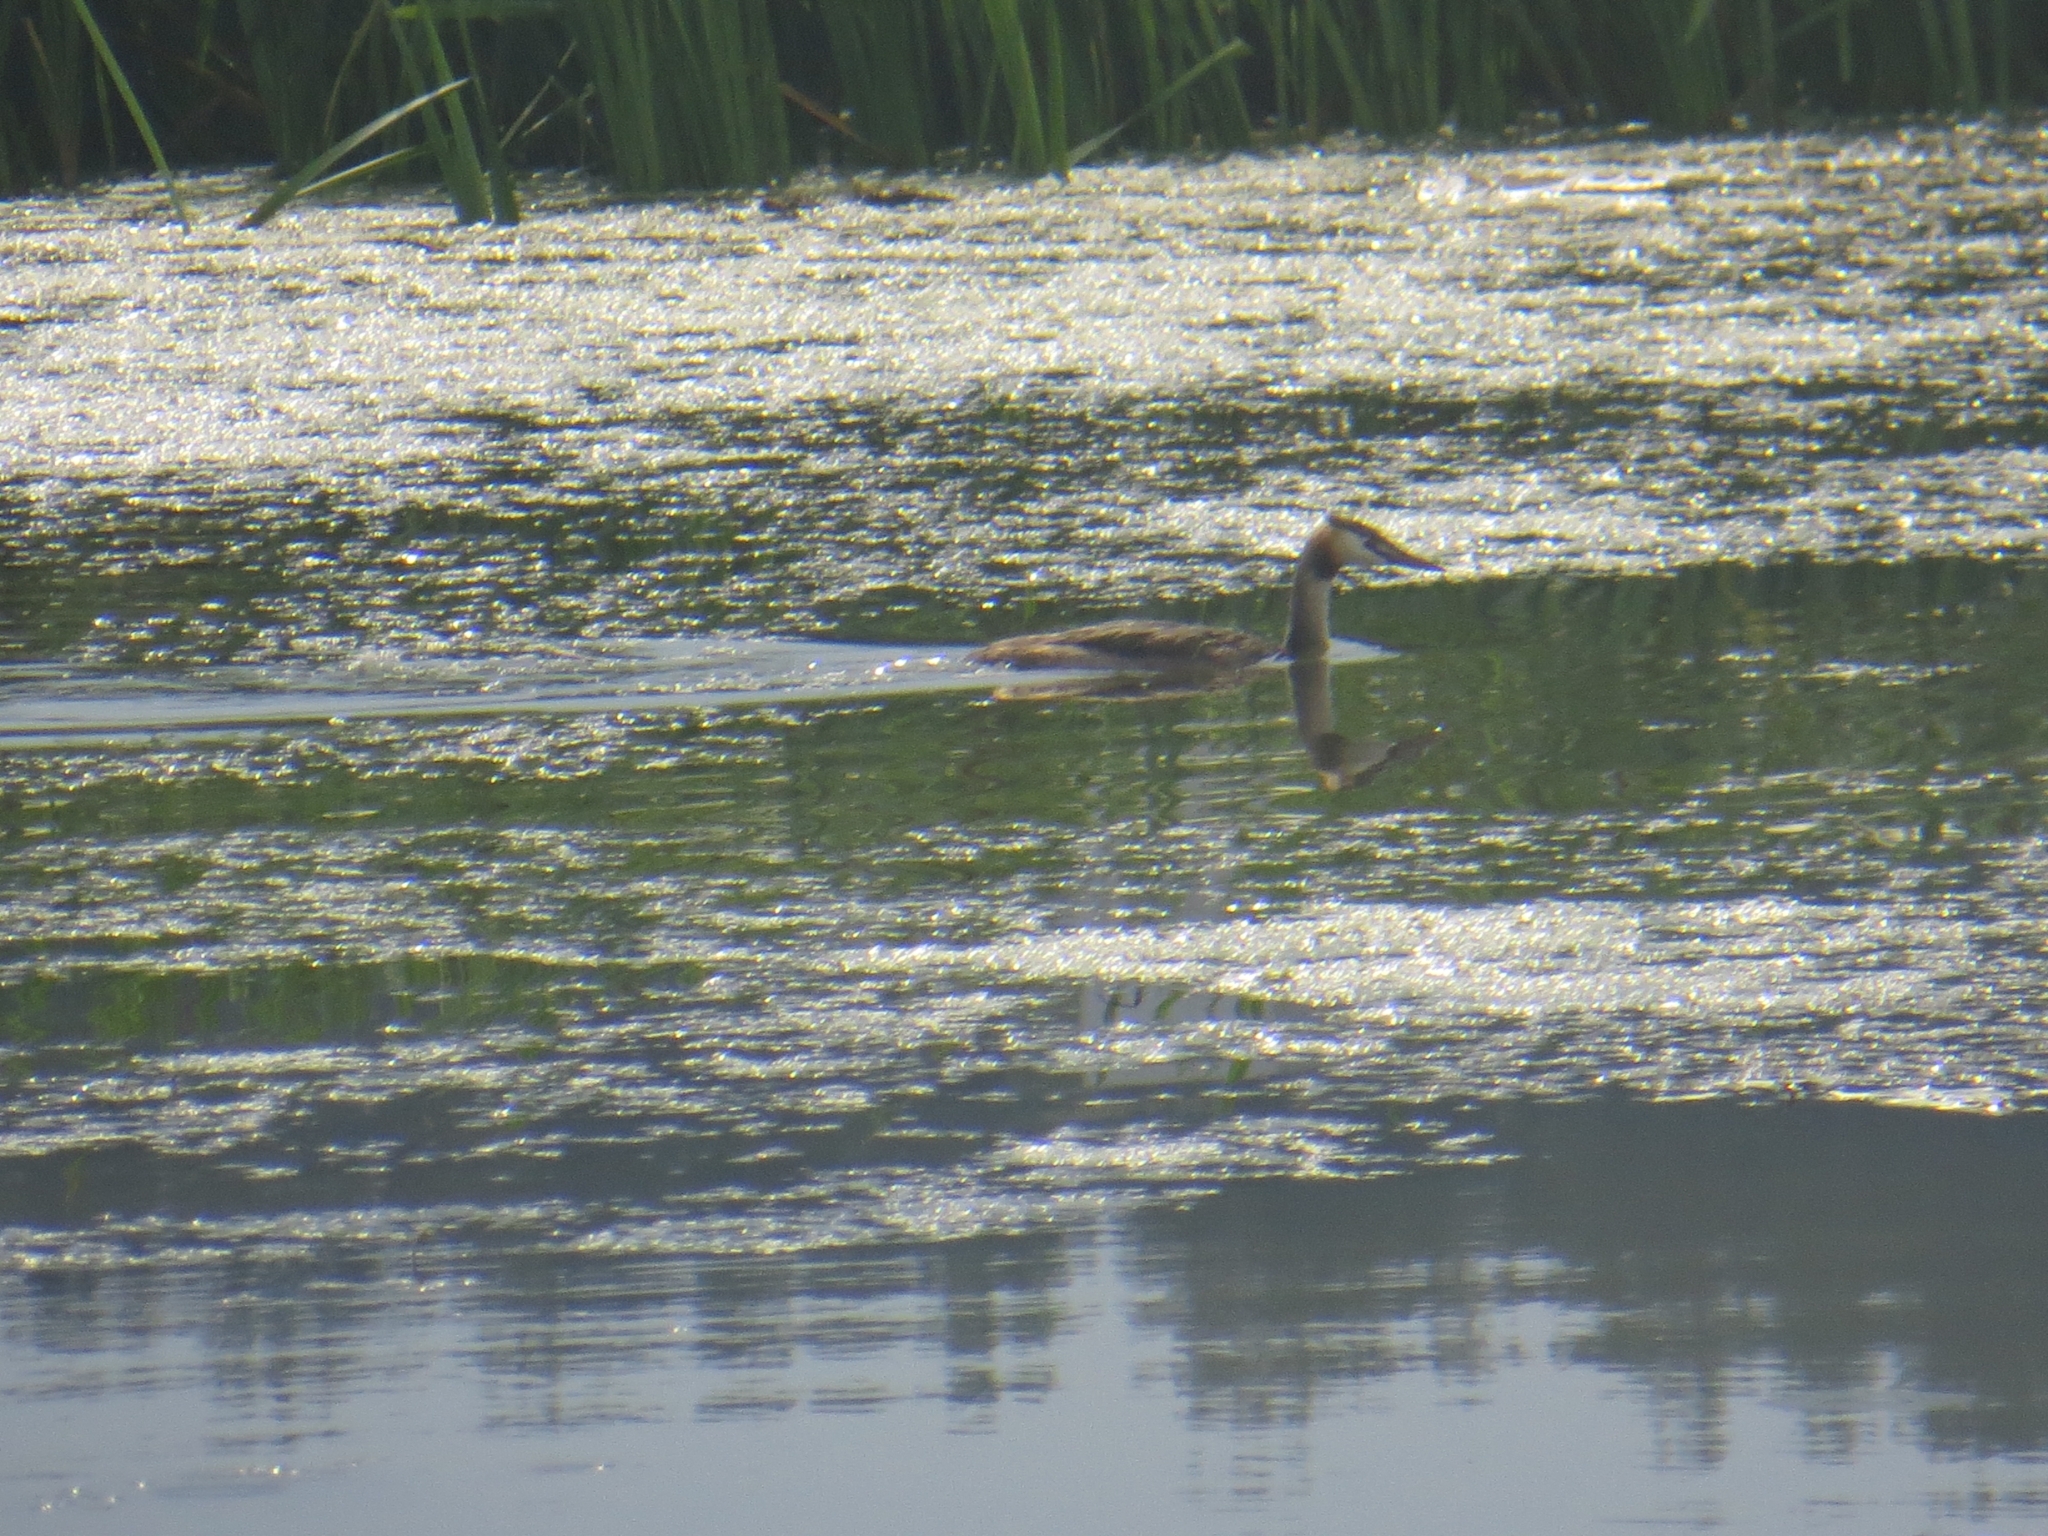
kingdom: Animalia
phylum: Chordata
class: Aves
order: Podicipediformes
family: Podicipedidae
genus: Podiceps
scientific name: Podiceps cristatus
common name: Great crested grebe
